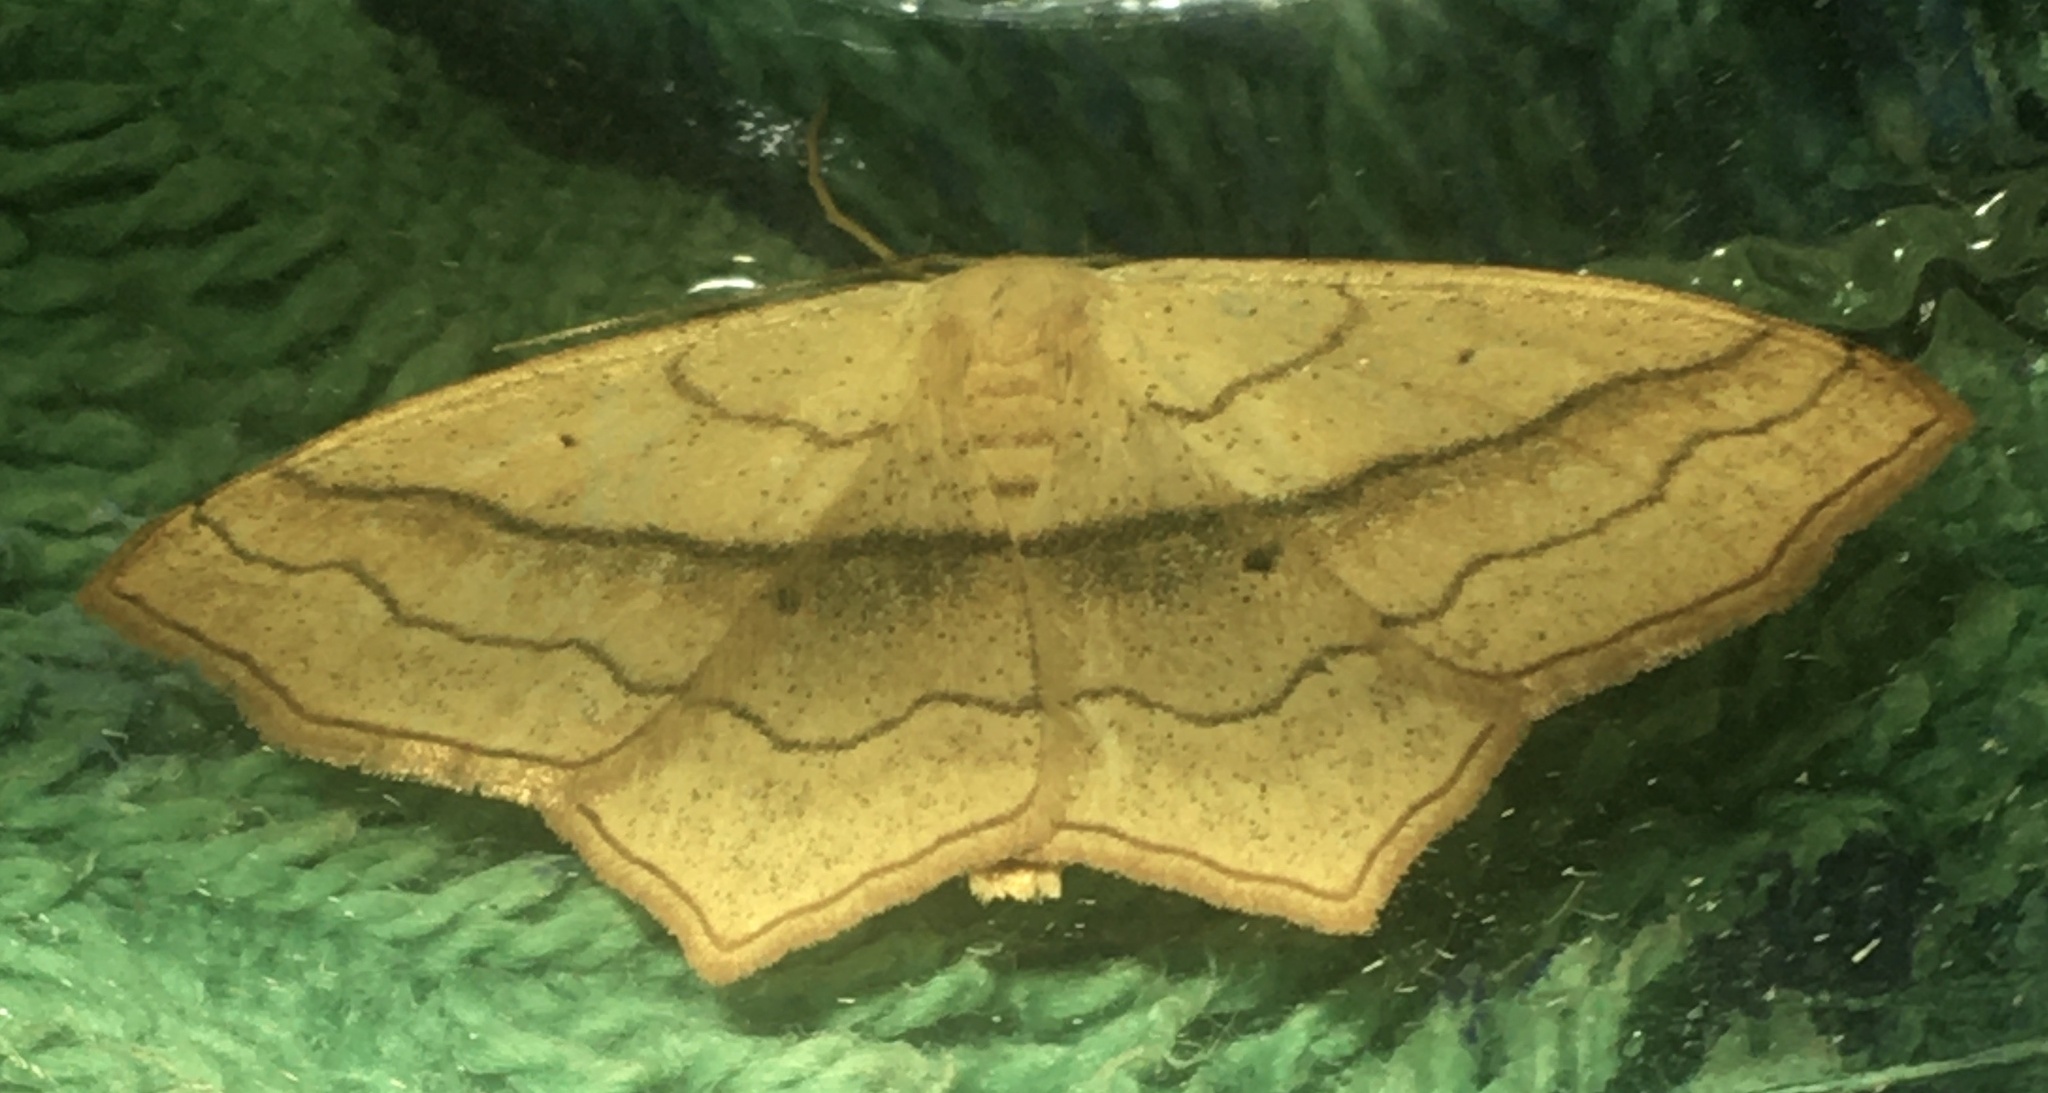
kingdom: Animalia
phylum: Arthropoda
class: Insecta
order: Lepidoptera
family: Geometridae
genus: Scopula
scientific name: Scopula imitaria
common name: Small blood-vein
